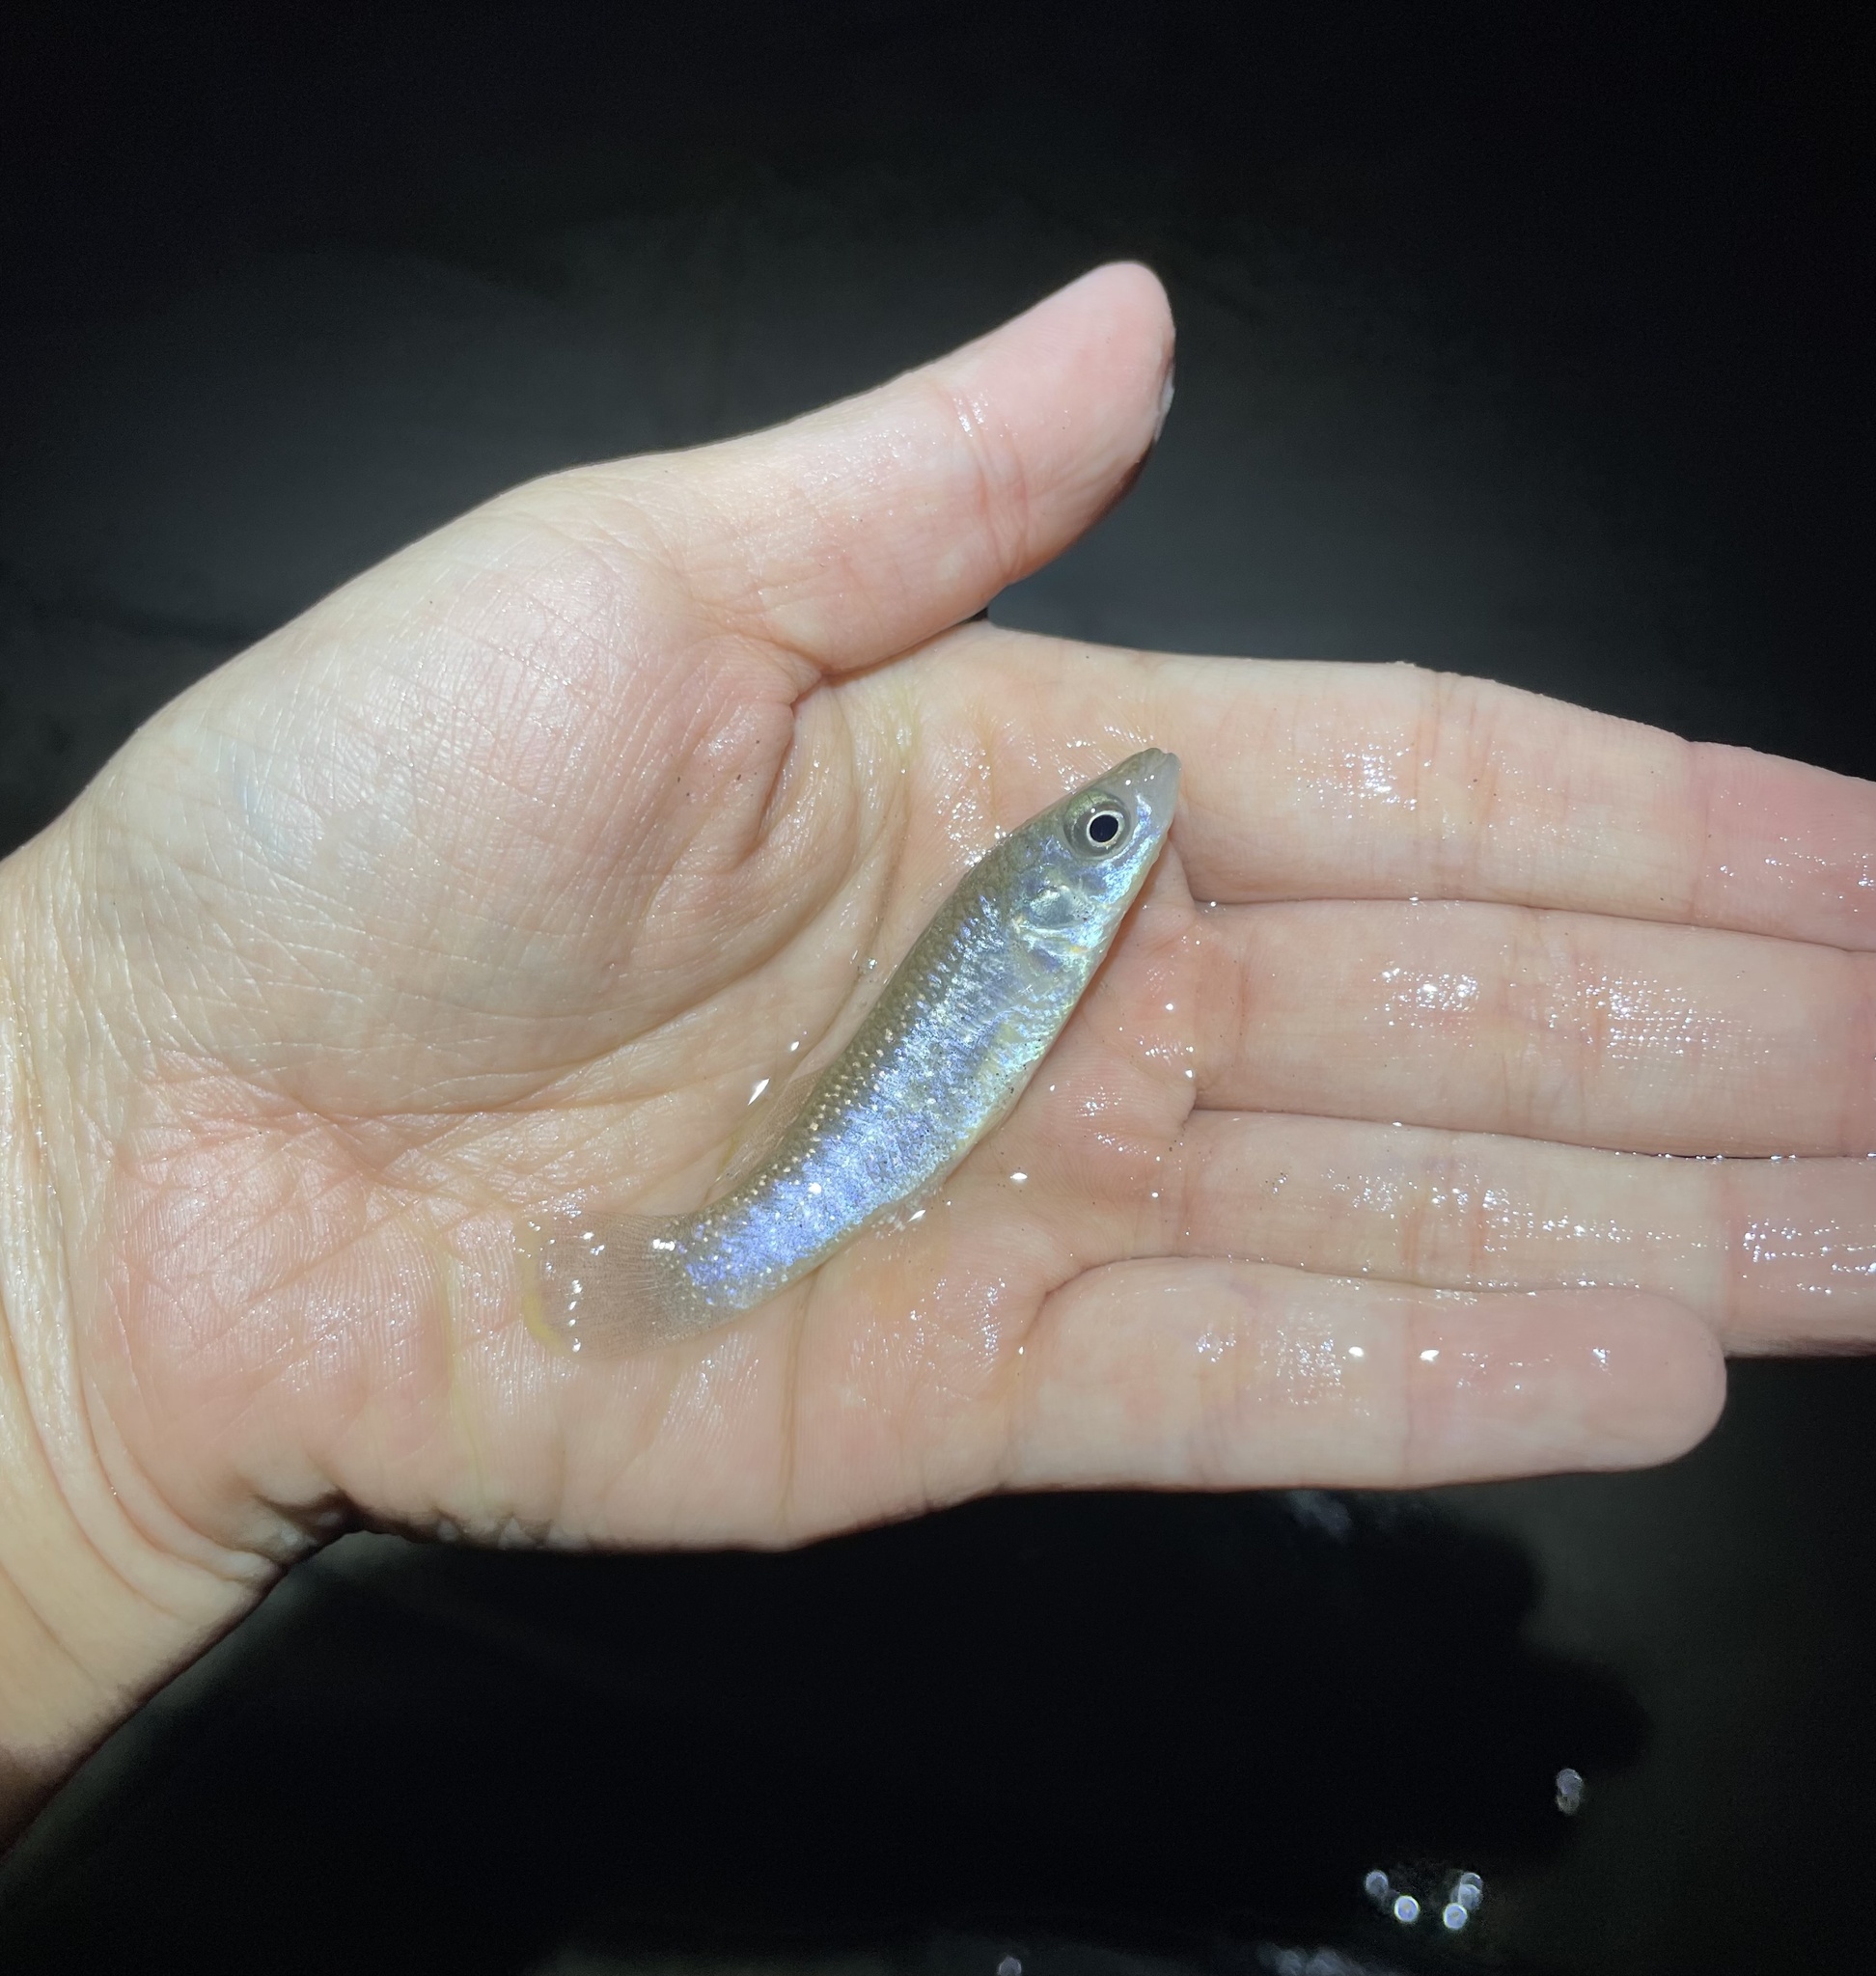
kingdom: Animalia
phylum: Chordata
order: Cyprinodontiformes
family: Fundulidae
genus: Fundulus
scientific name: Fundulus grandis
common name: Gulf killifish
